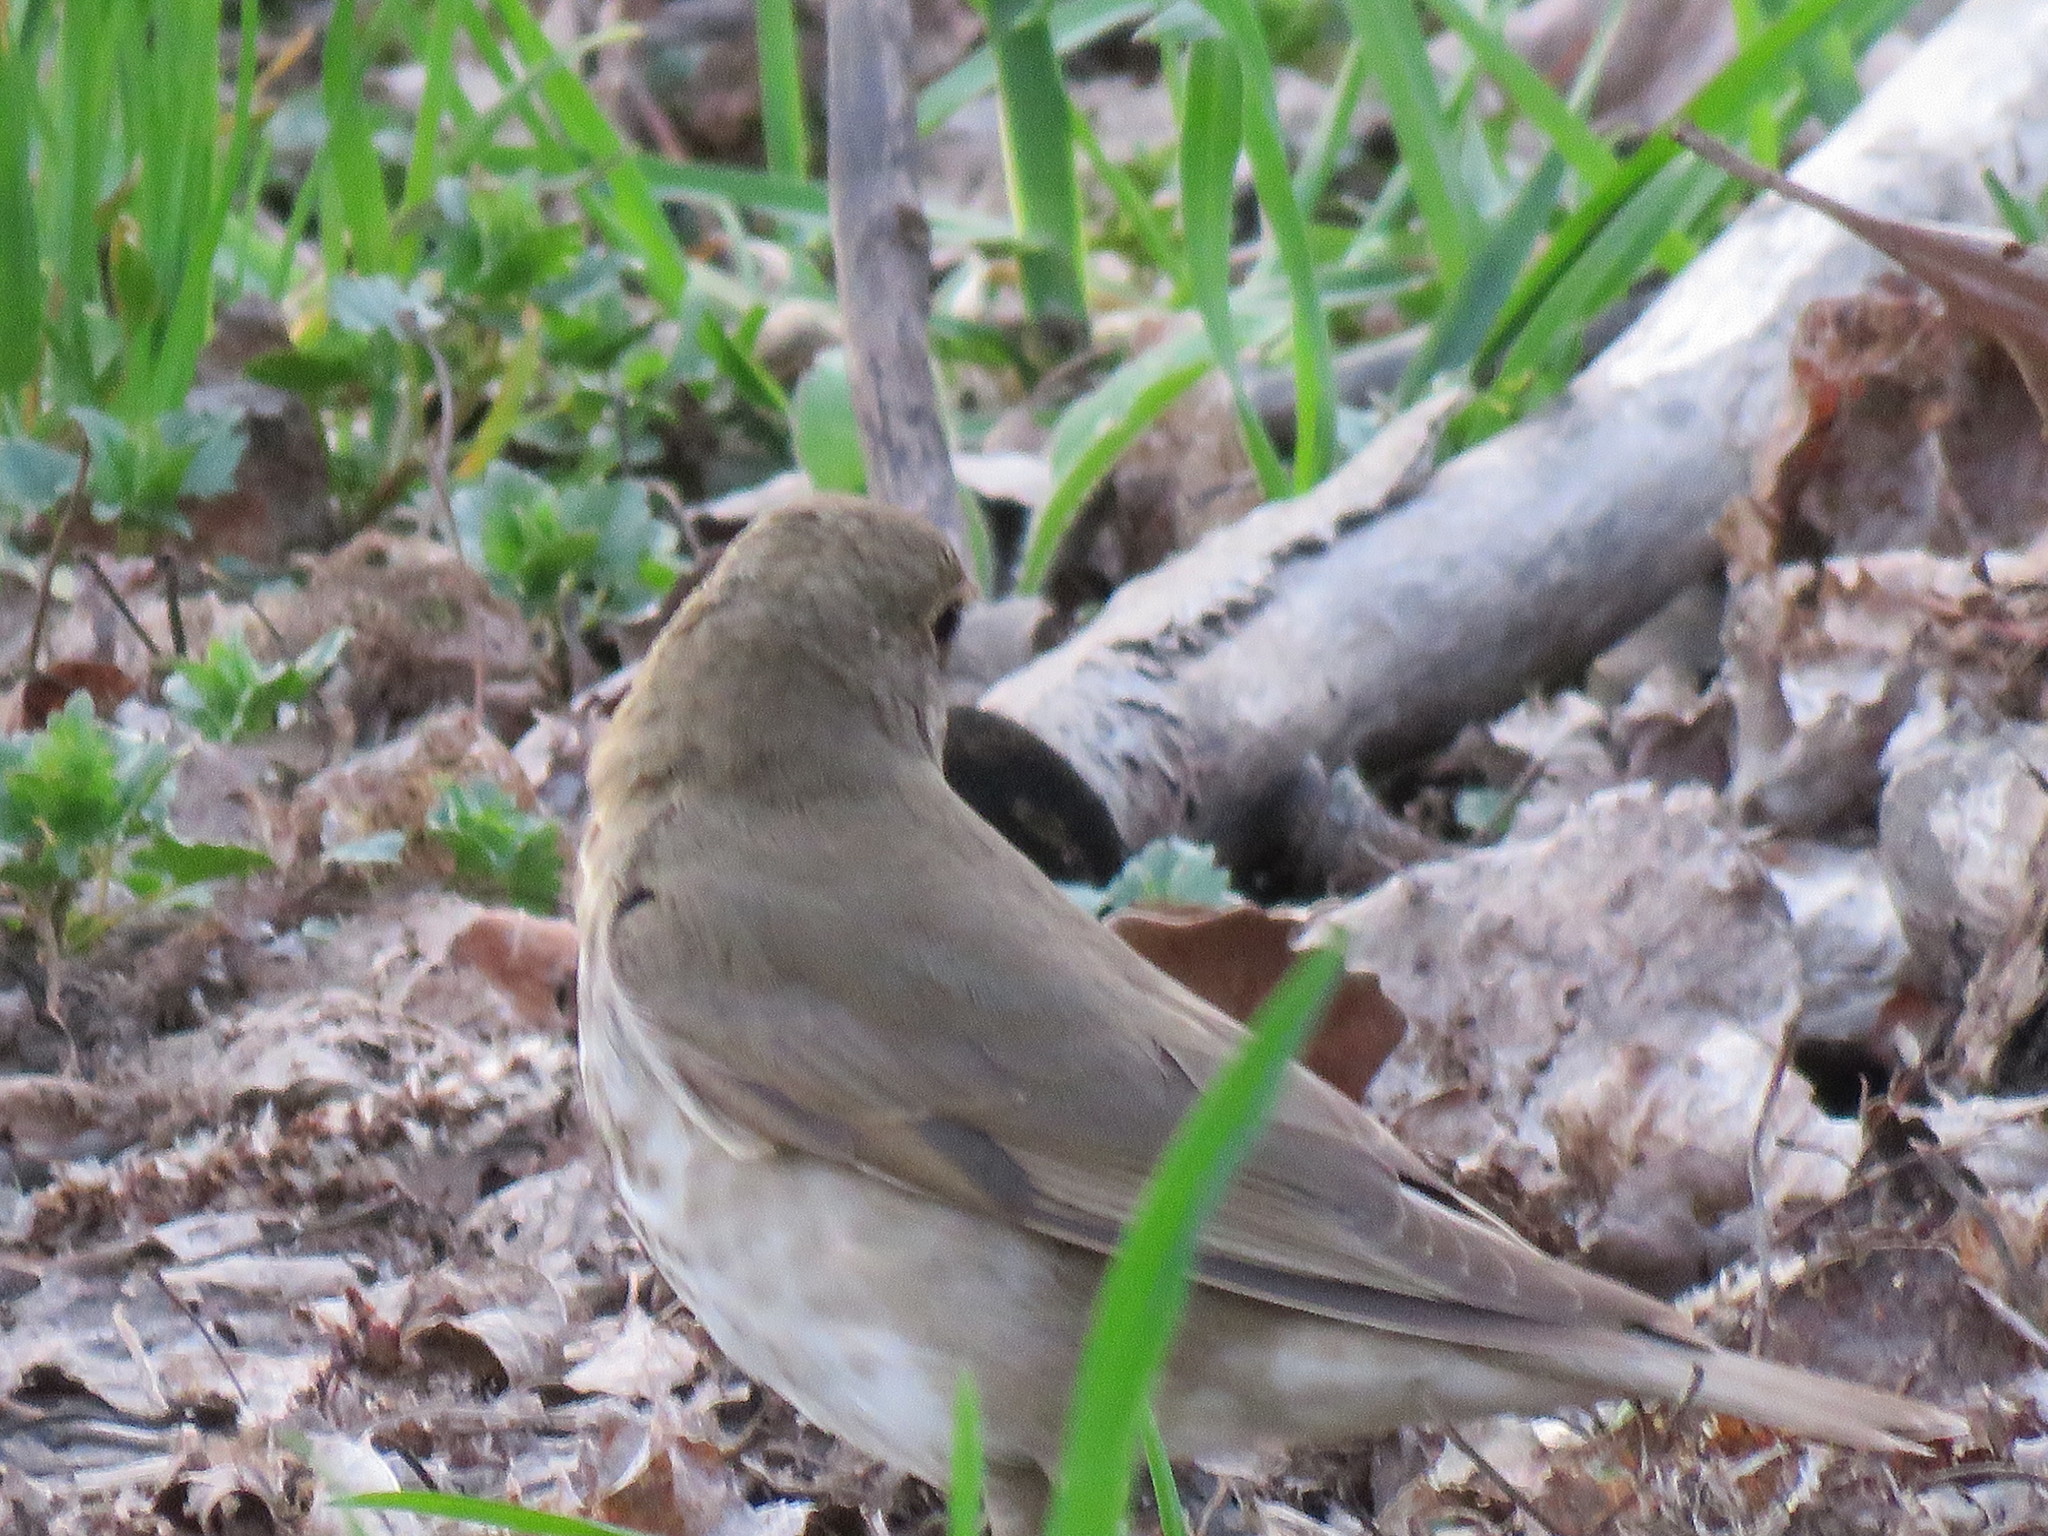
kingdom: Animalia
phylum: Chordata
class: Aves
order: Passeriformes
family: Turdidae
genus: Catharus
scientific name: Catharus ustulatus
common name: Swainson's thrush
